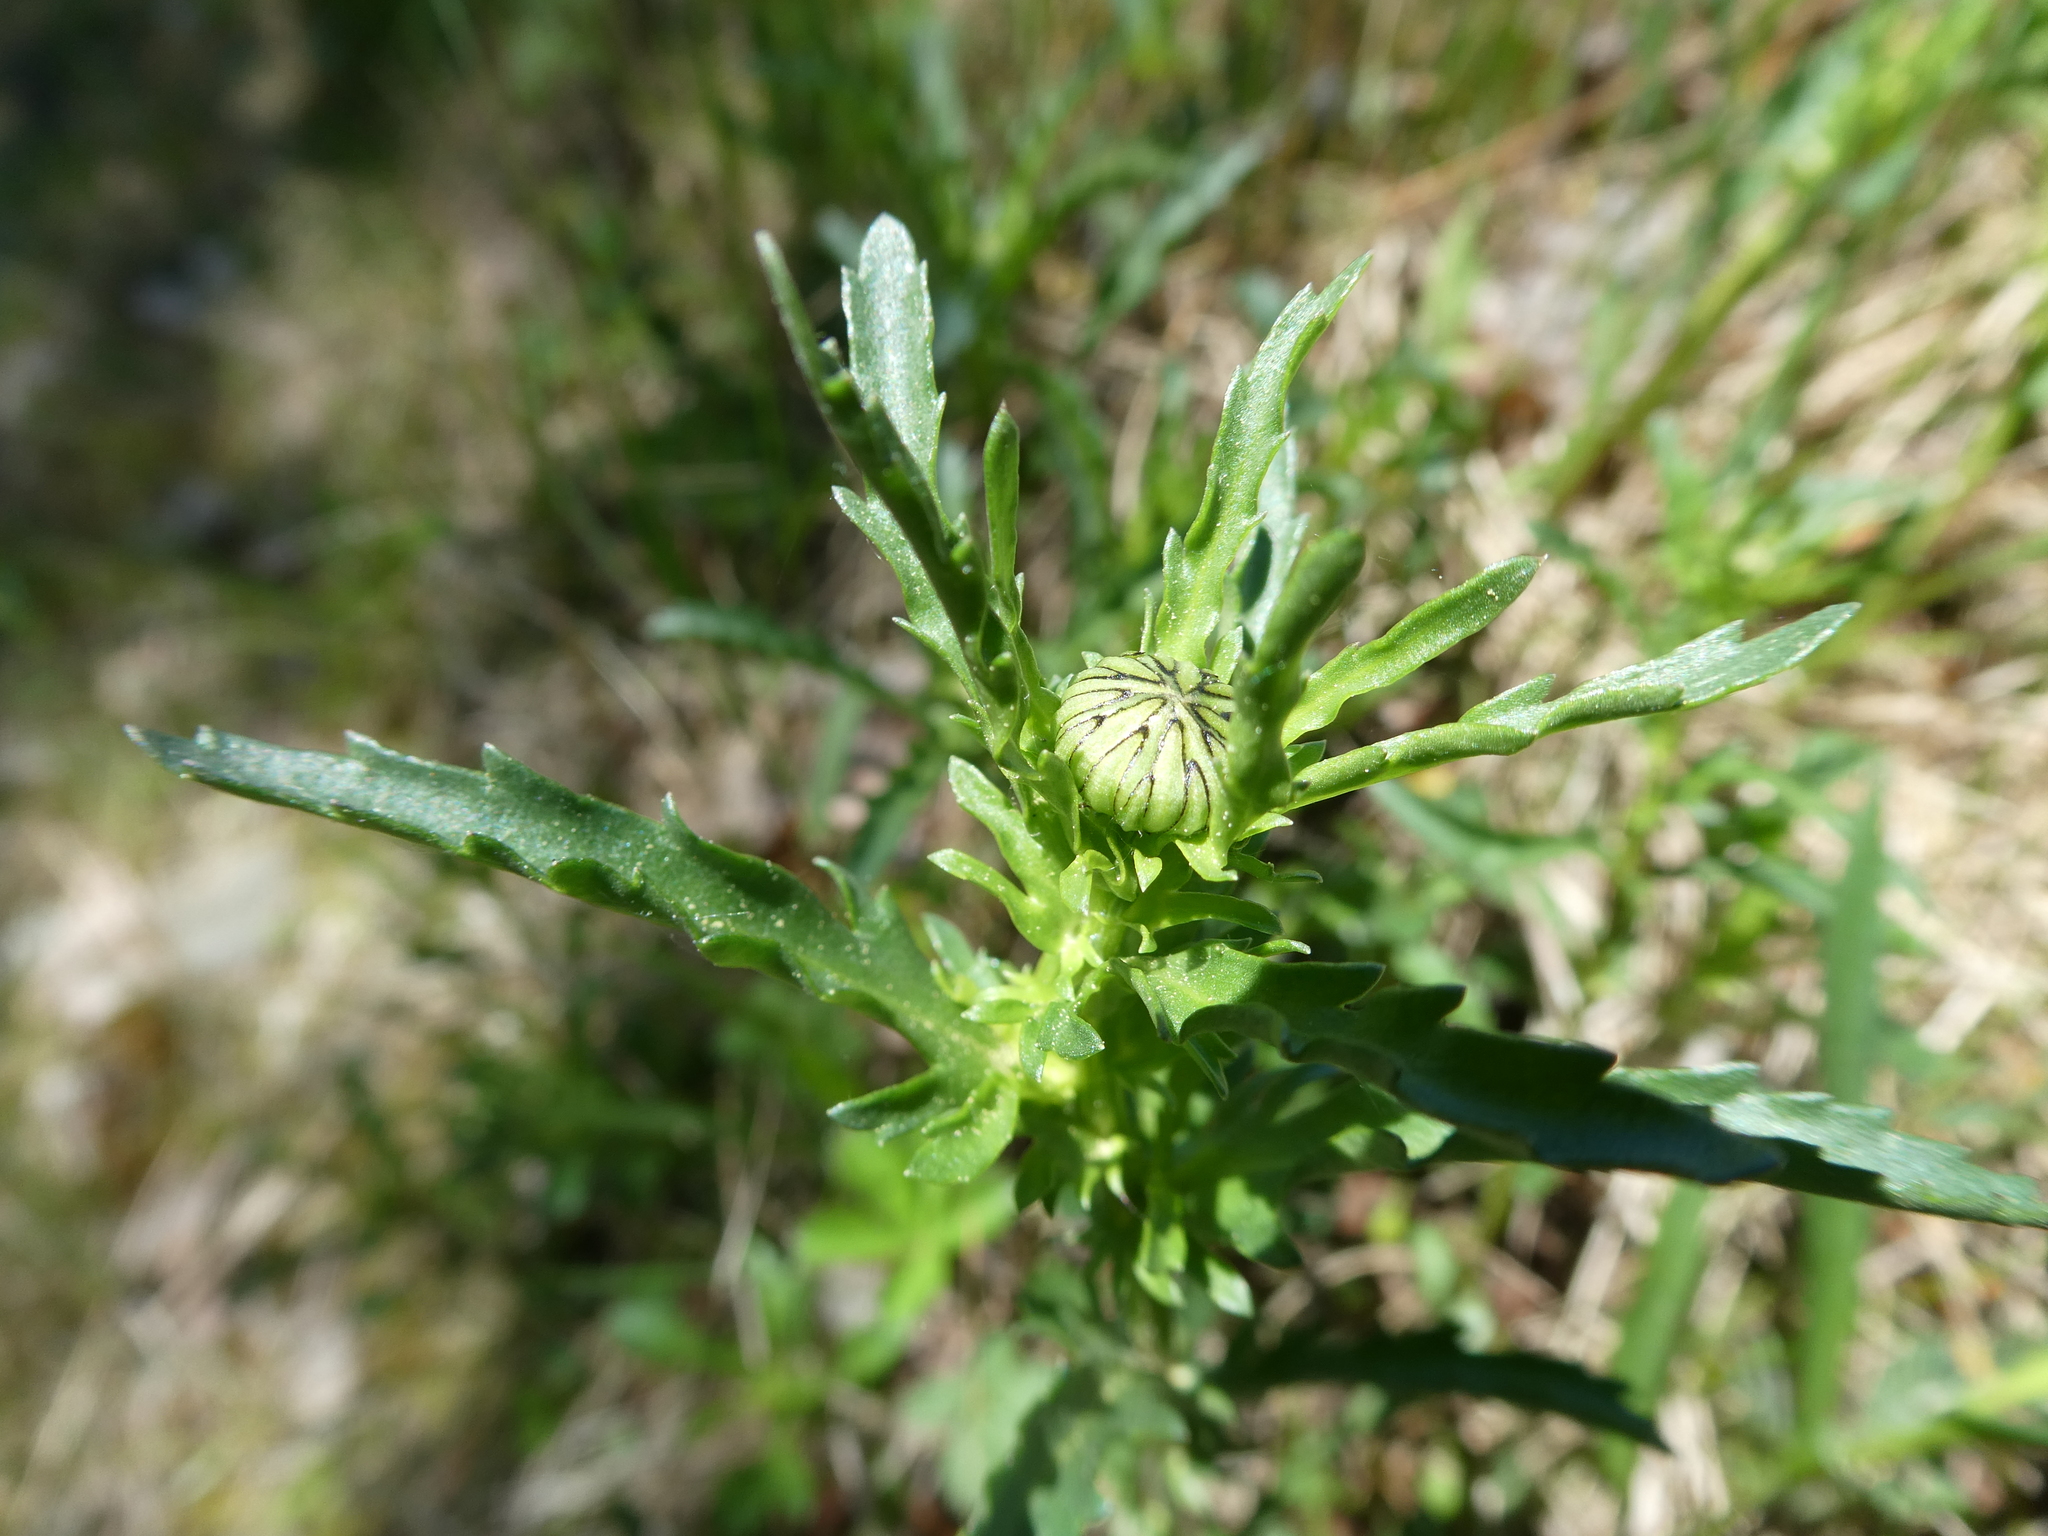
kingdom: Plantae
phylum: Tracheophyta
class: Magnoliopsida
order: Asterales
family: Asteraceae
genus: Leucanthemum
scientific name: Leucanthemum vulgare
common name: Oxeye daisy
